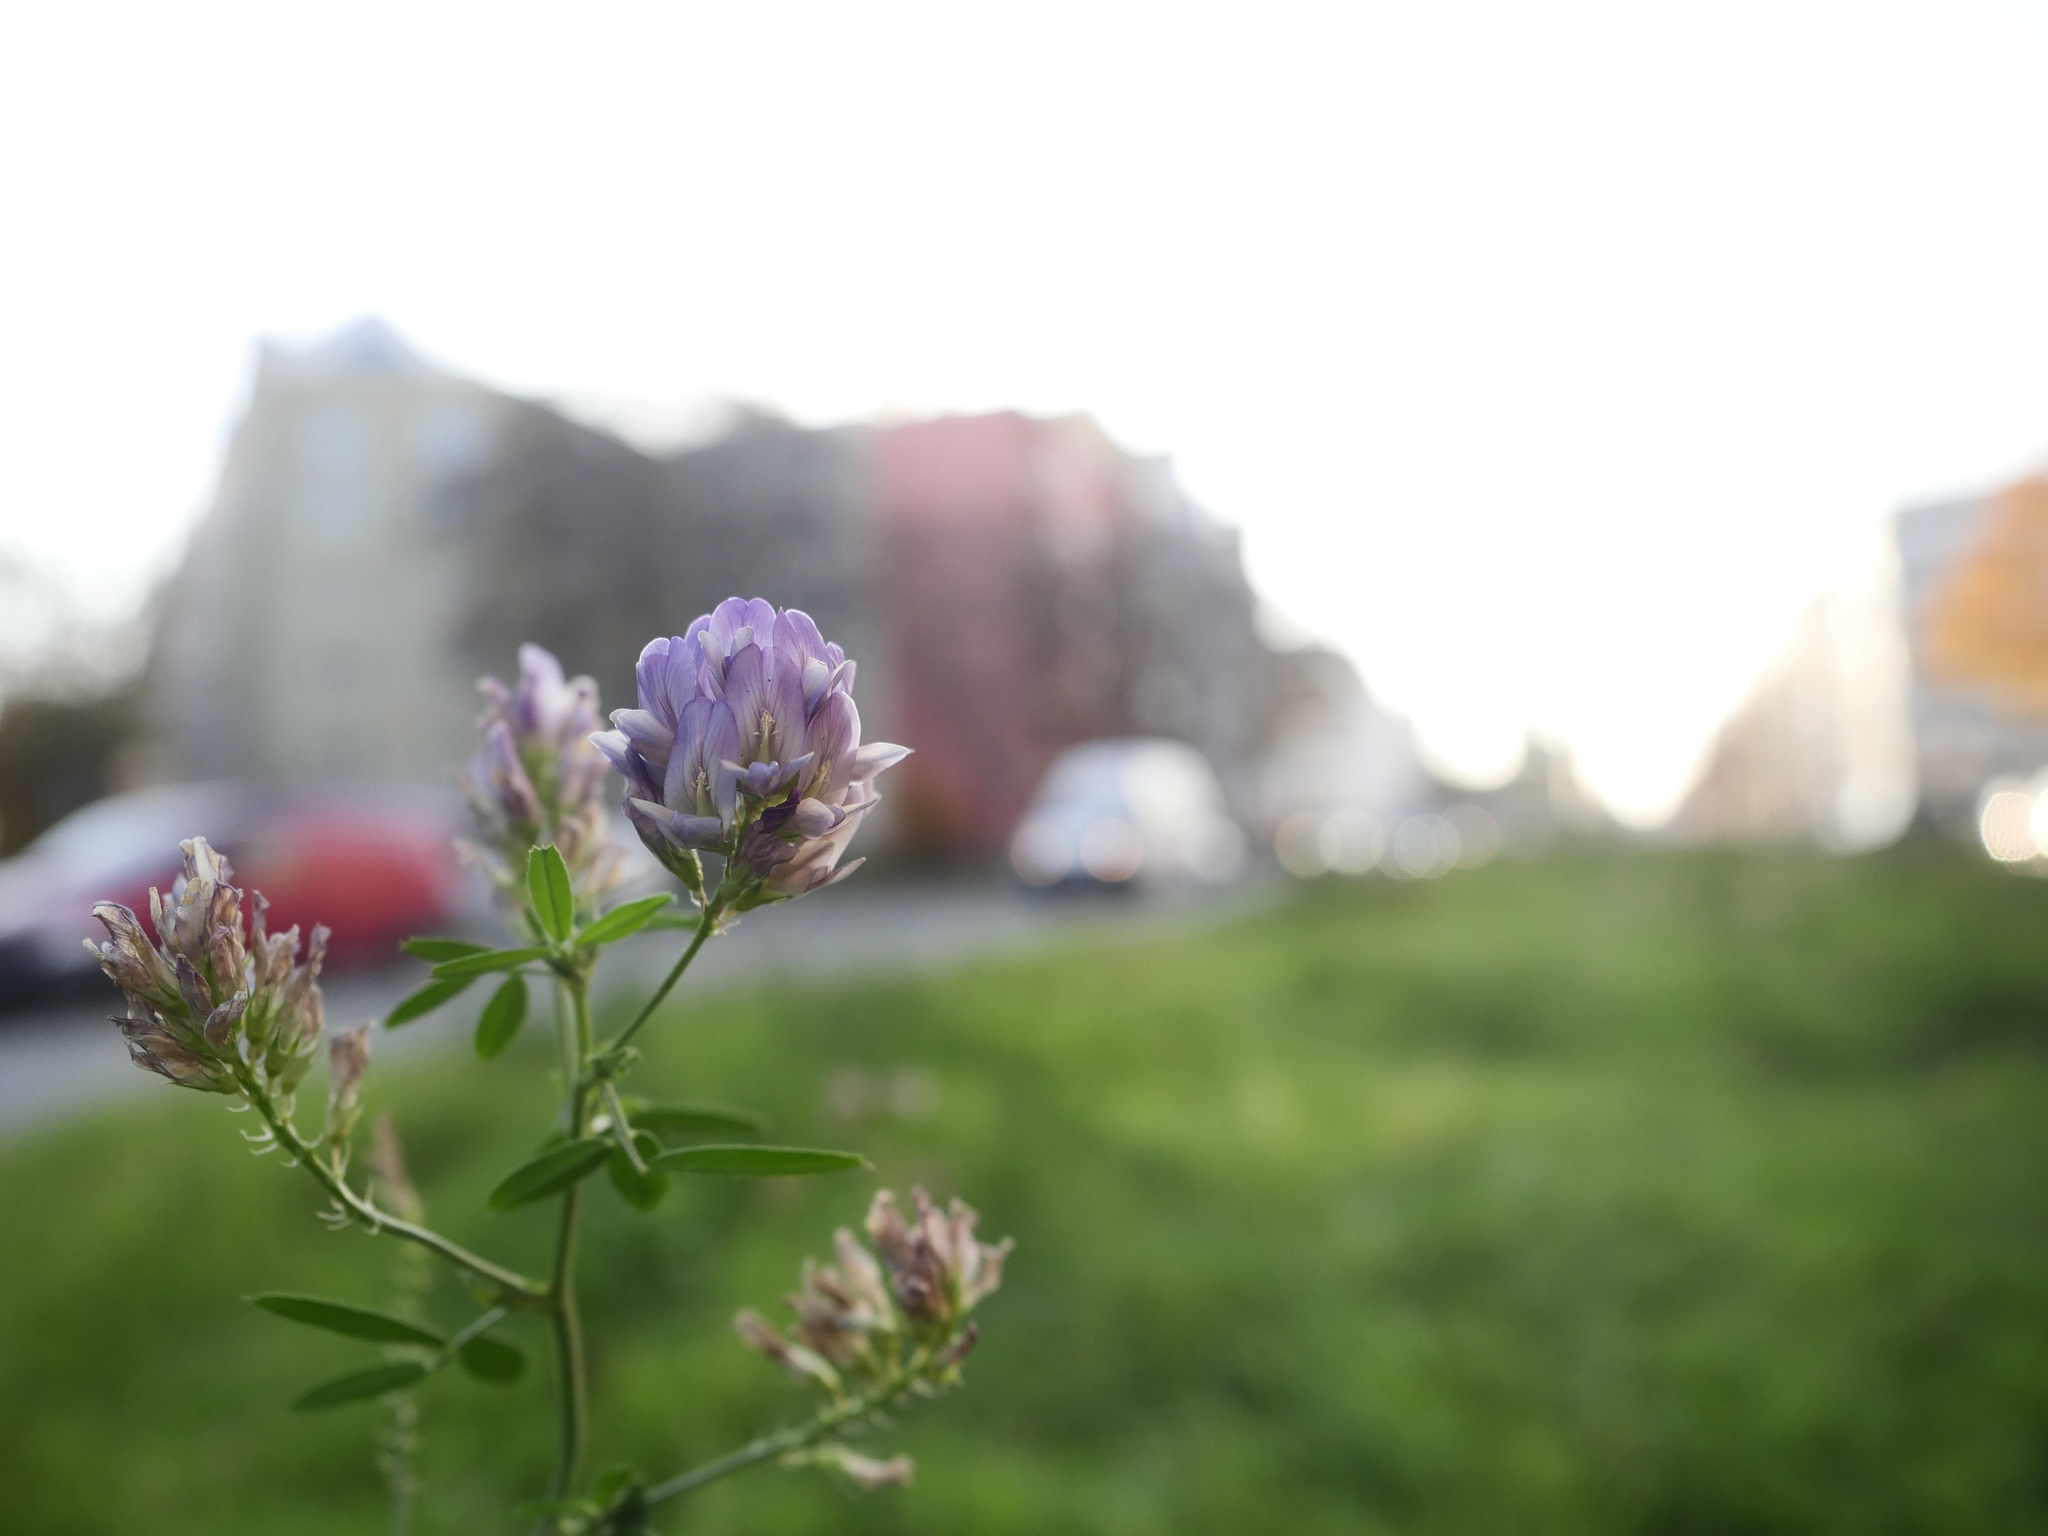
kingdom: Plantae
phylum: Tracheophyta
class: Magnoliopsida
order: Fabales
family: Fabaceae
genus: Medicago
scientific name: Medicago varia
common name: Sand lucerne
